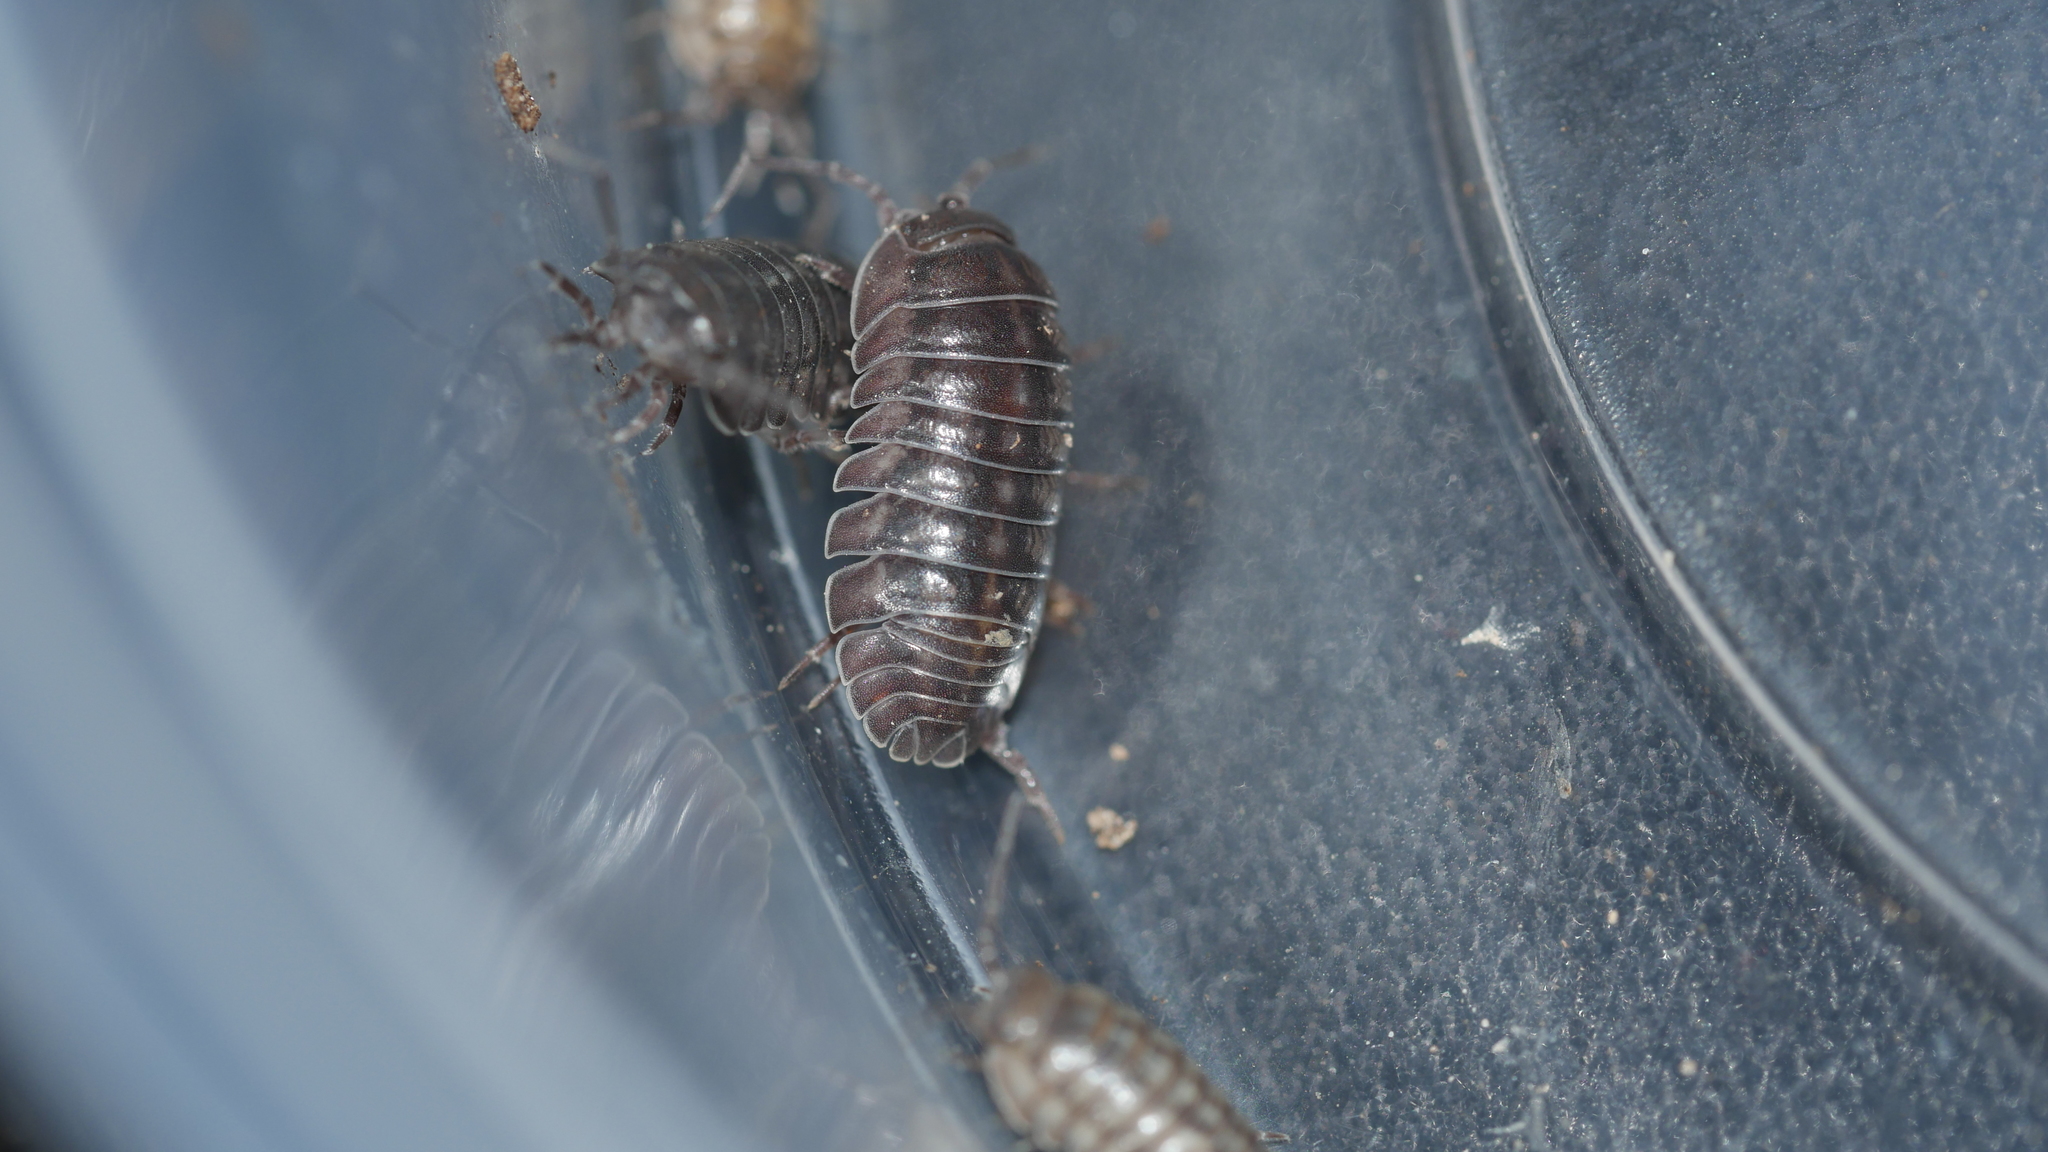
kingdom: Animalia
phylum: Arthropoda
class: Malacostraca
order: Isopoda
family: Armadillidiidae
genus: Armadillidium
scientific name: Armadillidium nasatum
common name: Isopod
